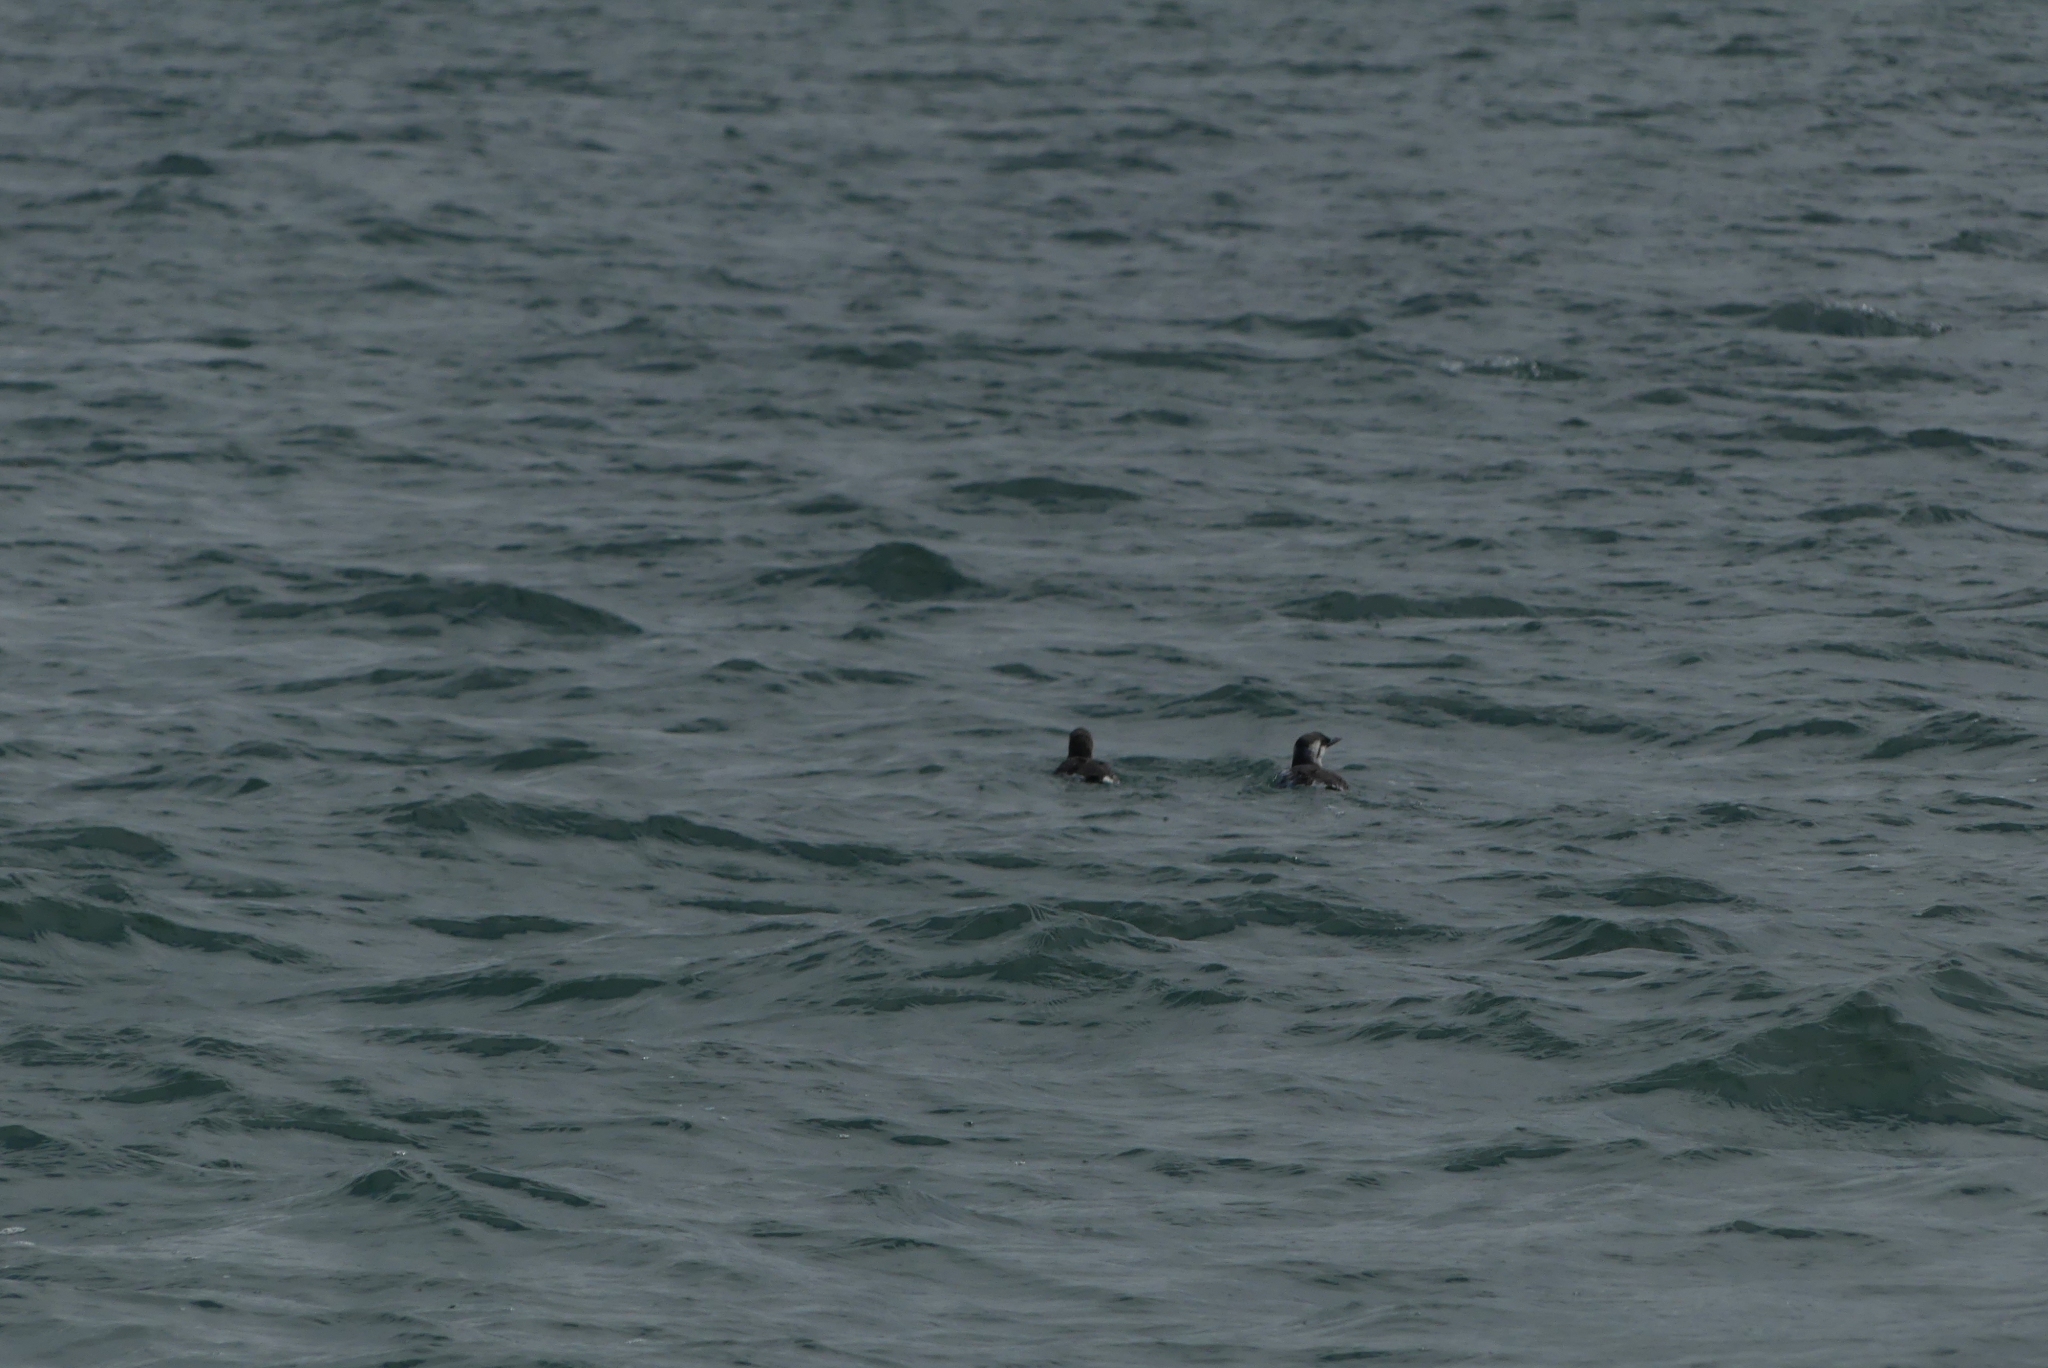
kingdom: Animalia
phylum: Chordata
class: Aves
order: Charadriiformes
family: Alcidae
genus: Uria
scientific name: Uria aalge
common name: Common murre
